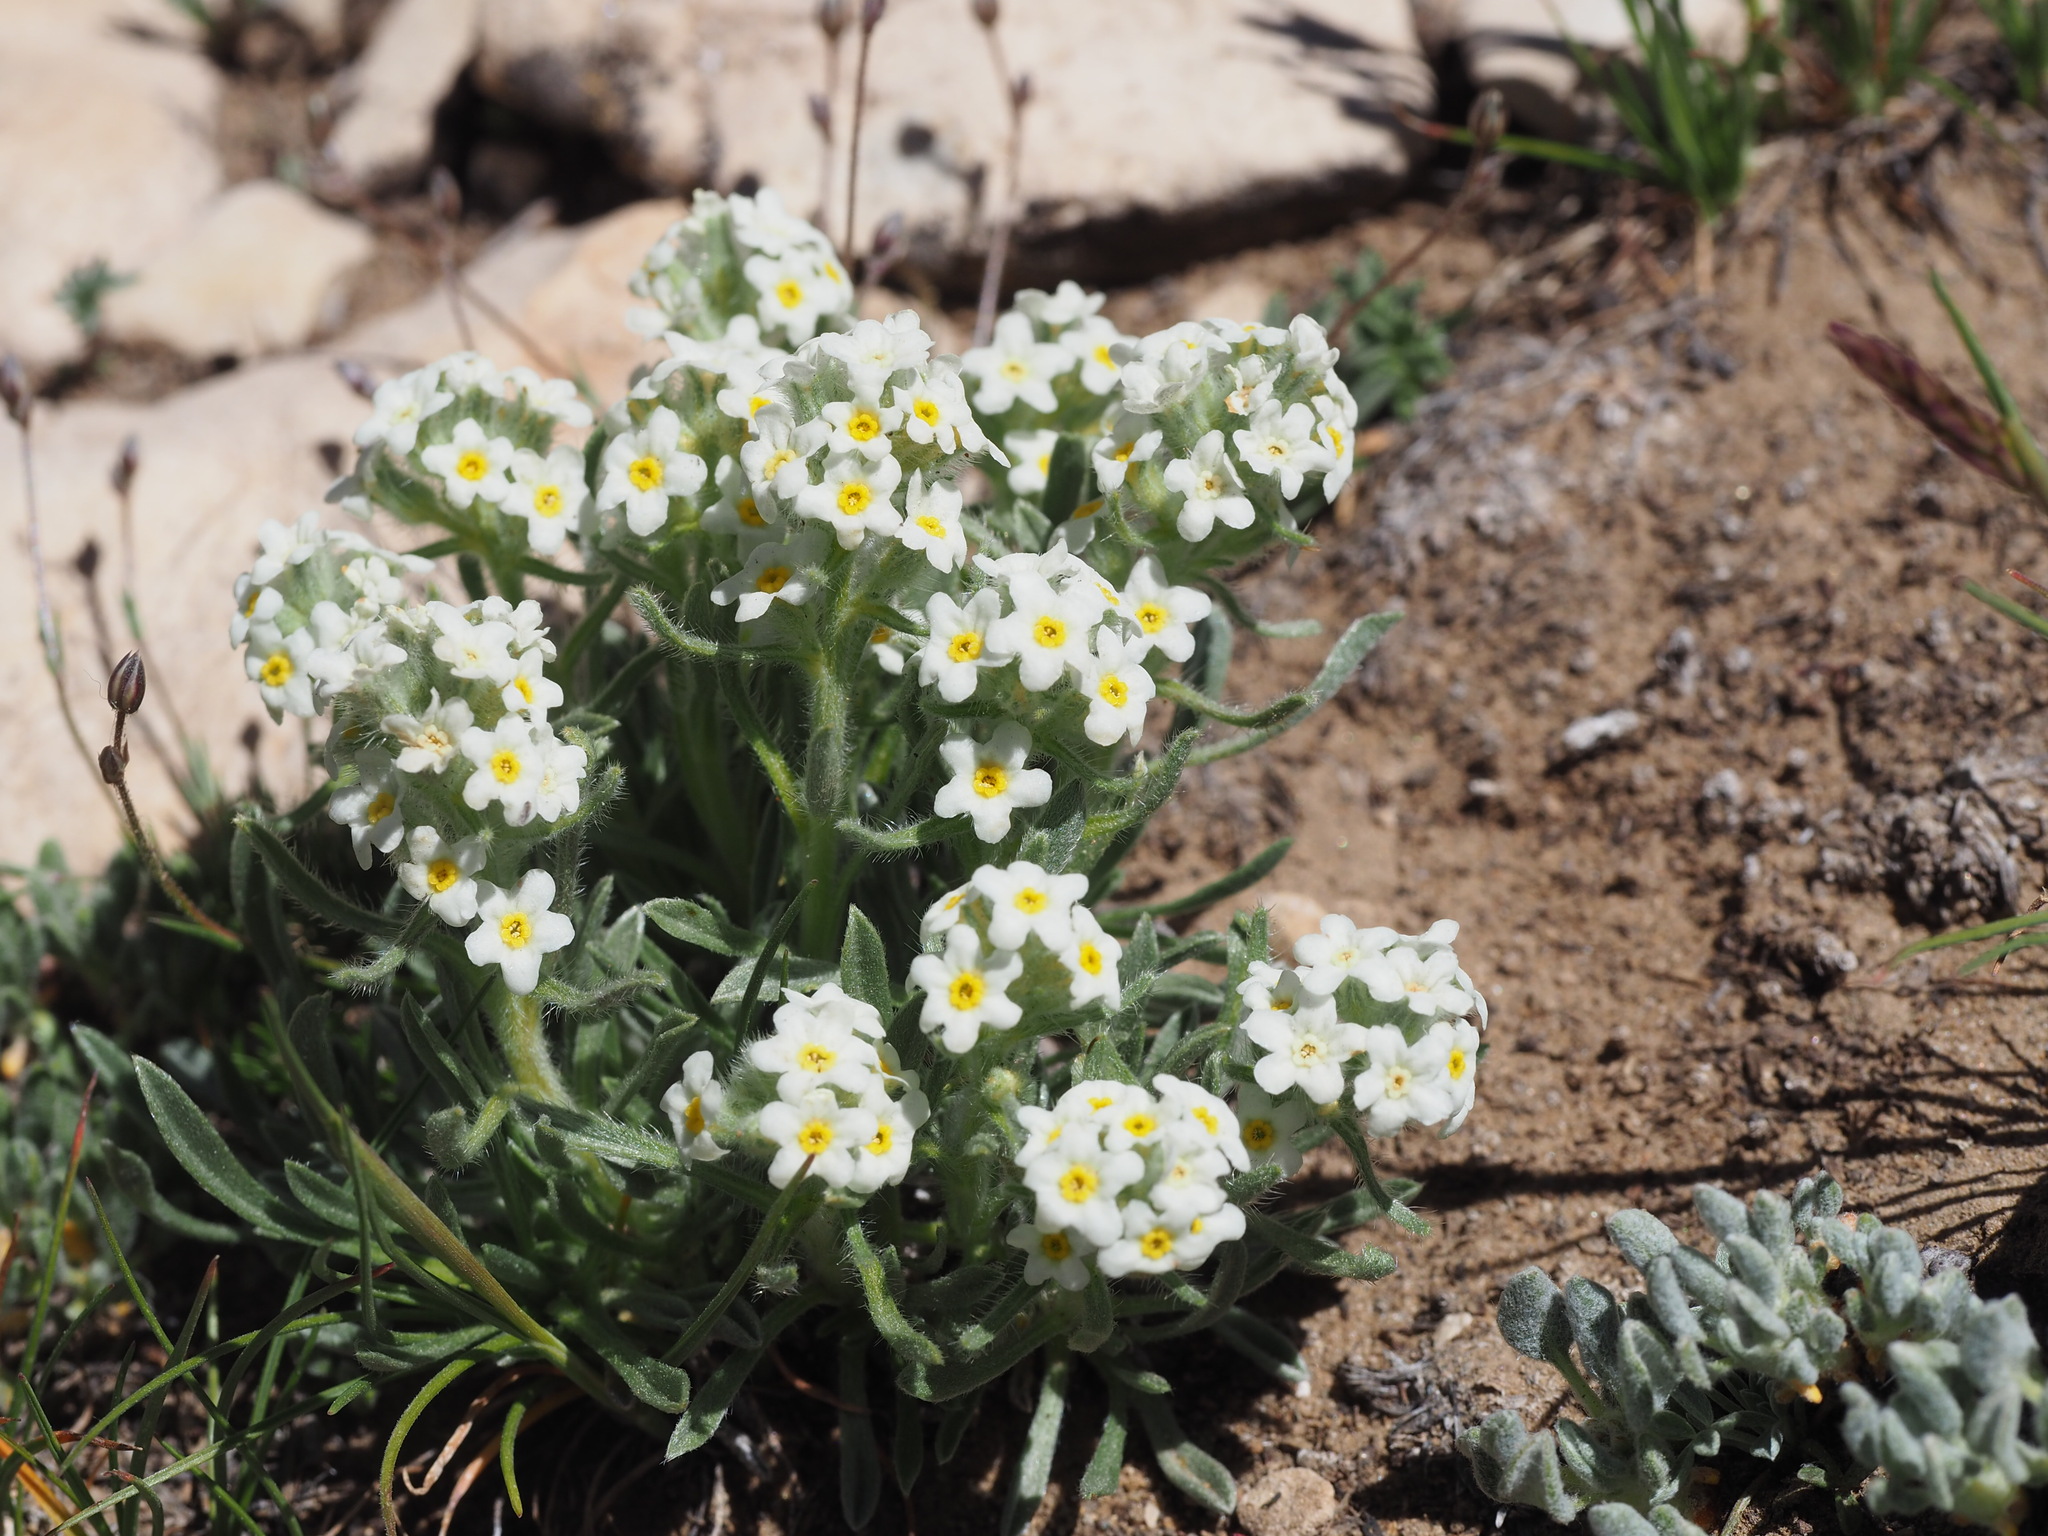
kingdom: Plantae
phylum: Tracheophyta
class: Magnoliopsida
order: Boraginales
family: Boraginaceae
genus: Oreocarya
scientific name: Oreocarya flavoculata
